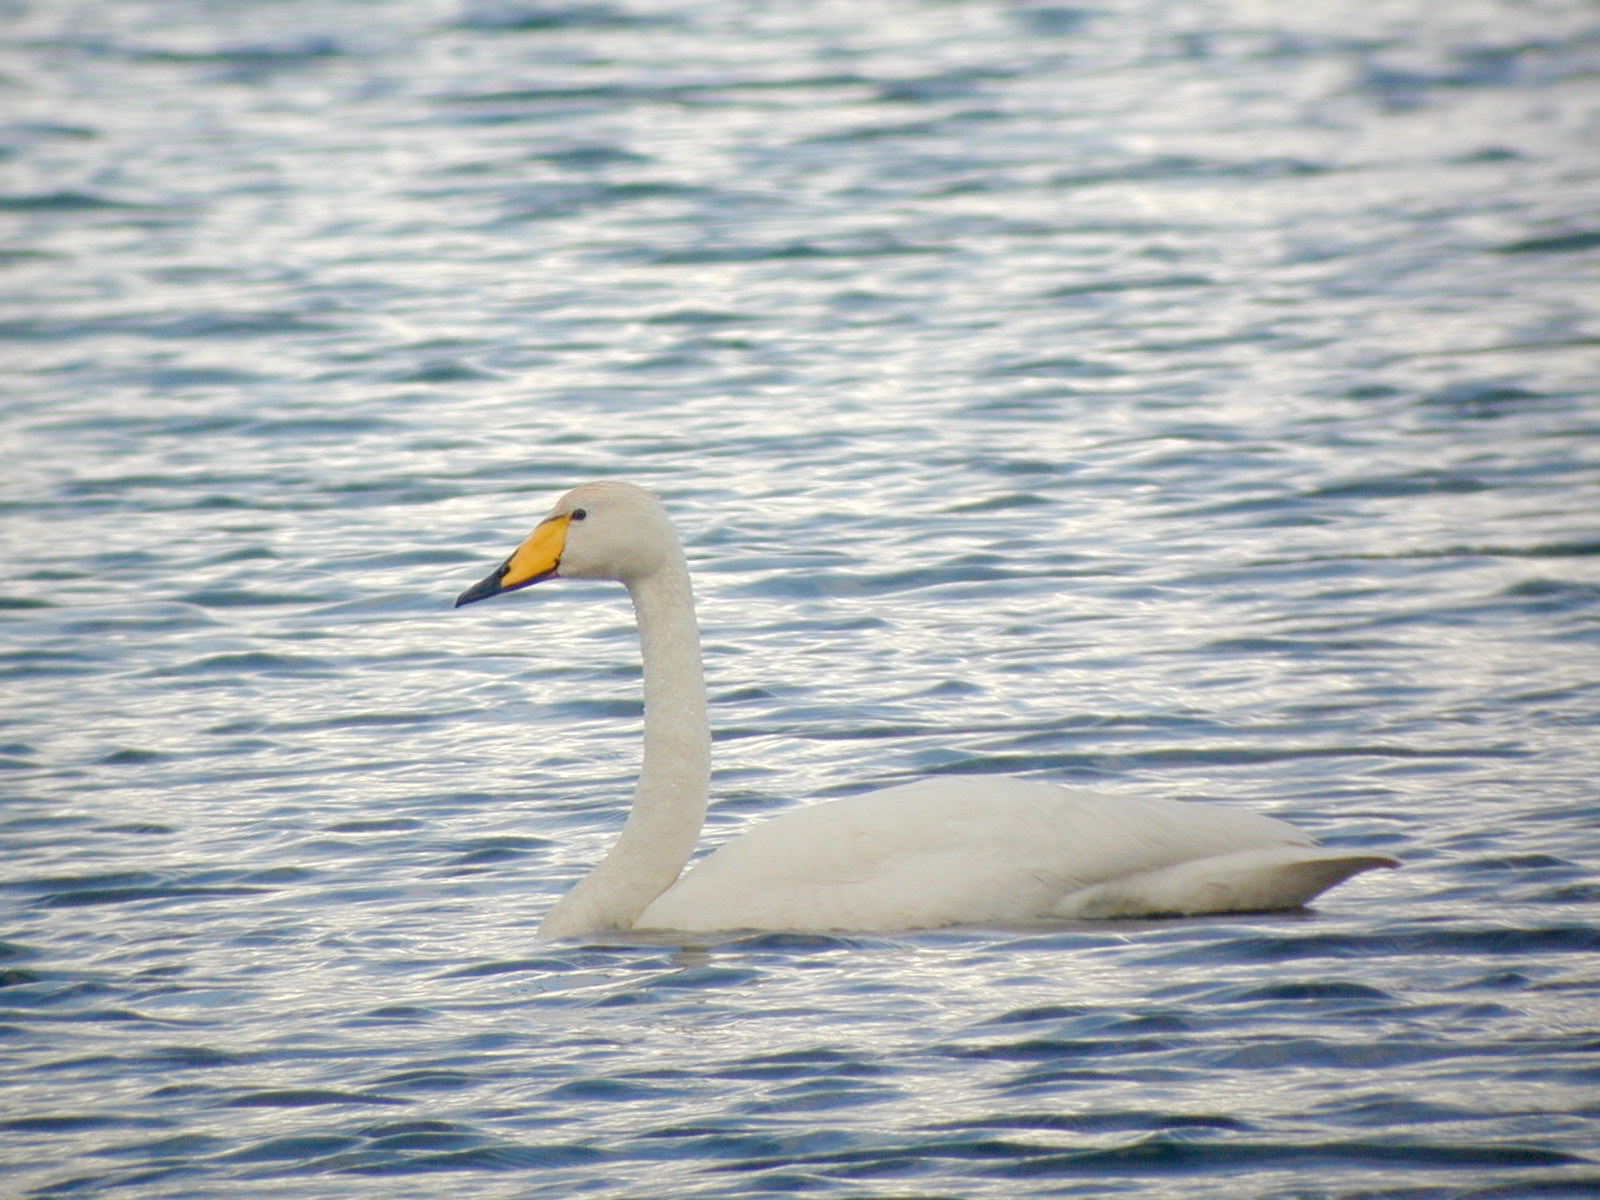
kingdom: Animalia
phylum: Chordata
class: Aves
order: Anseriformes
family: Anatidae
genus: Cygnus
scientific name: Cygnus cygnus
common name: Whooper swan
